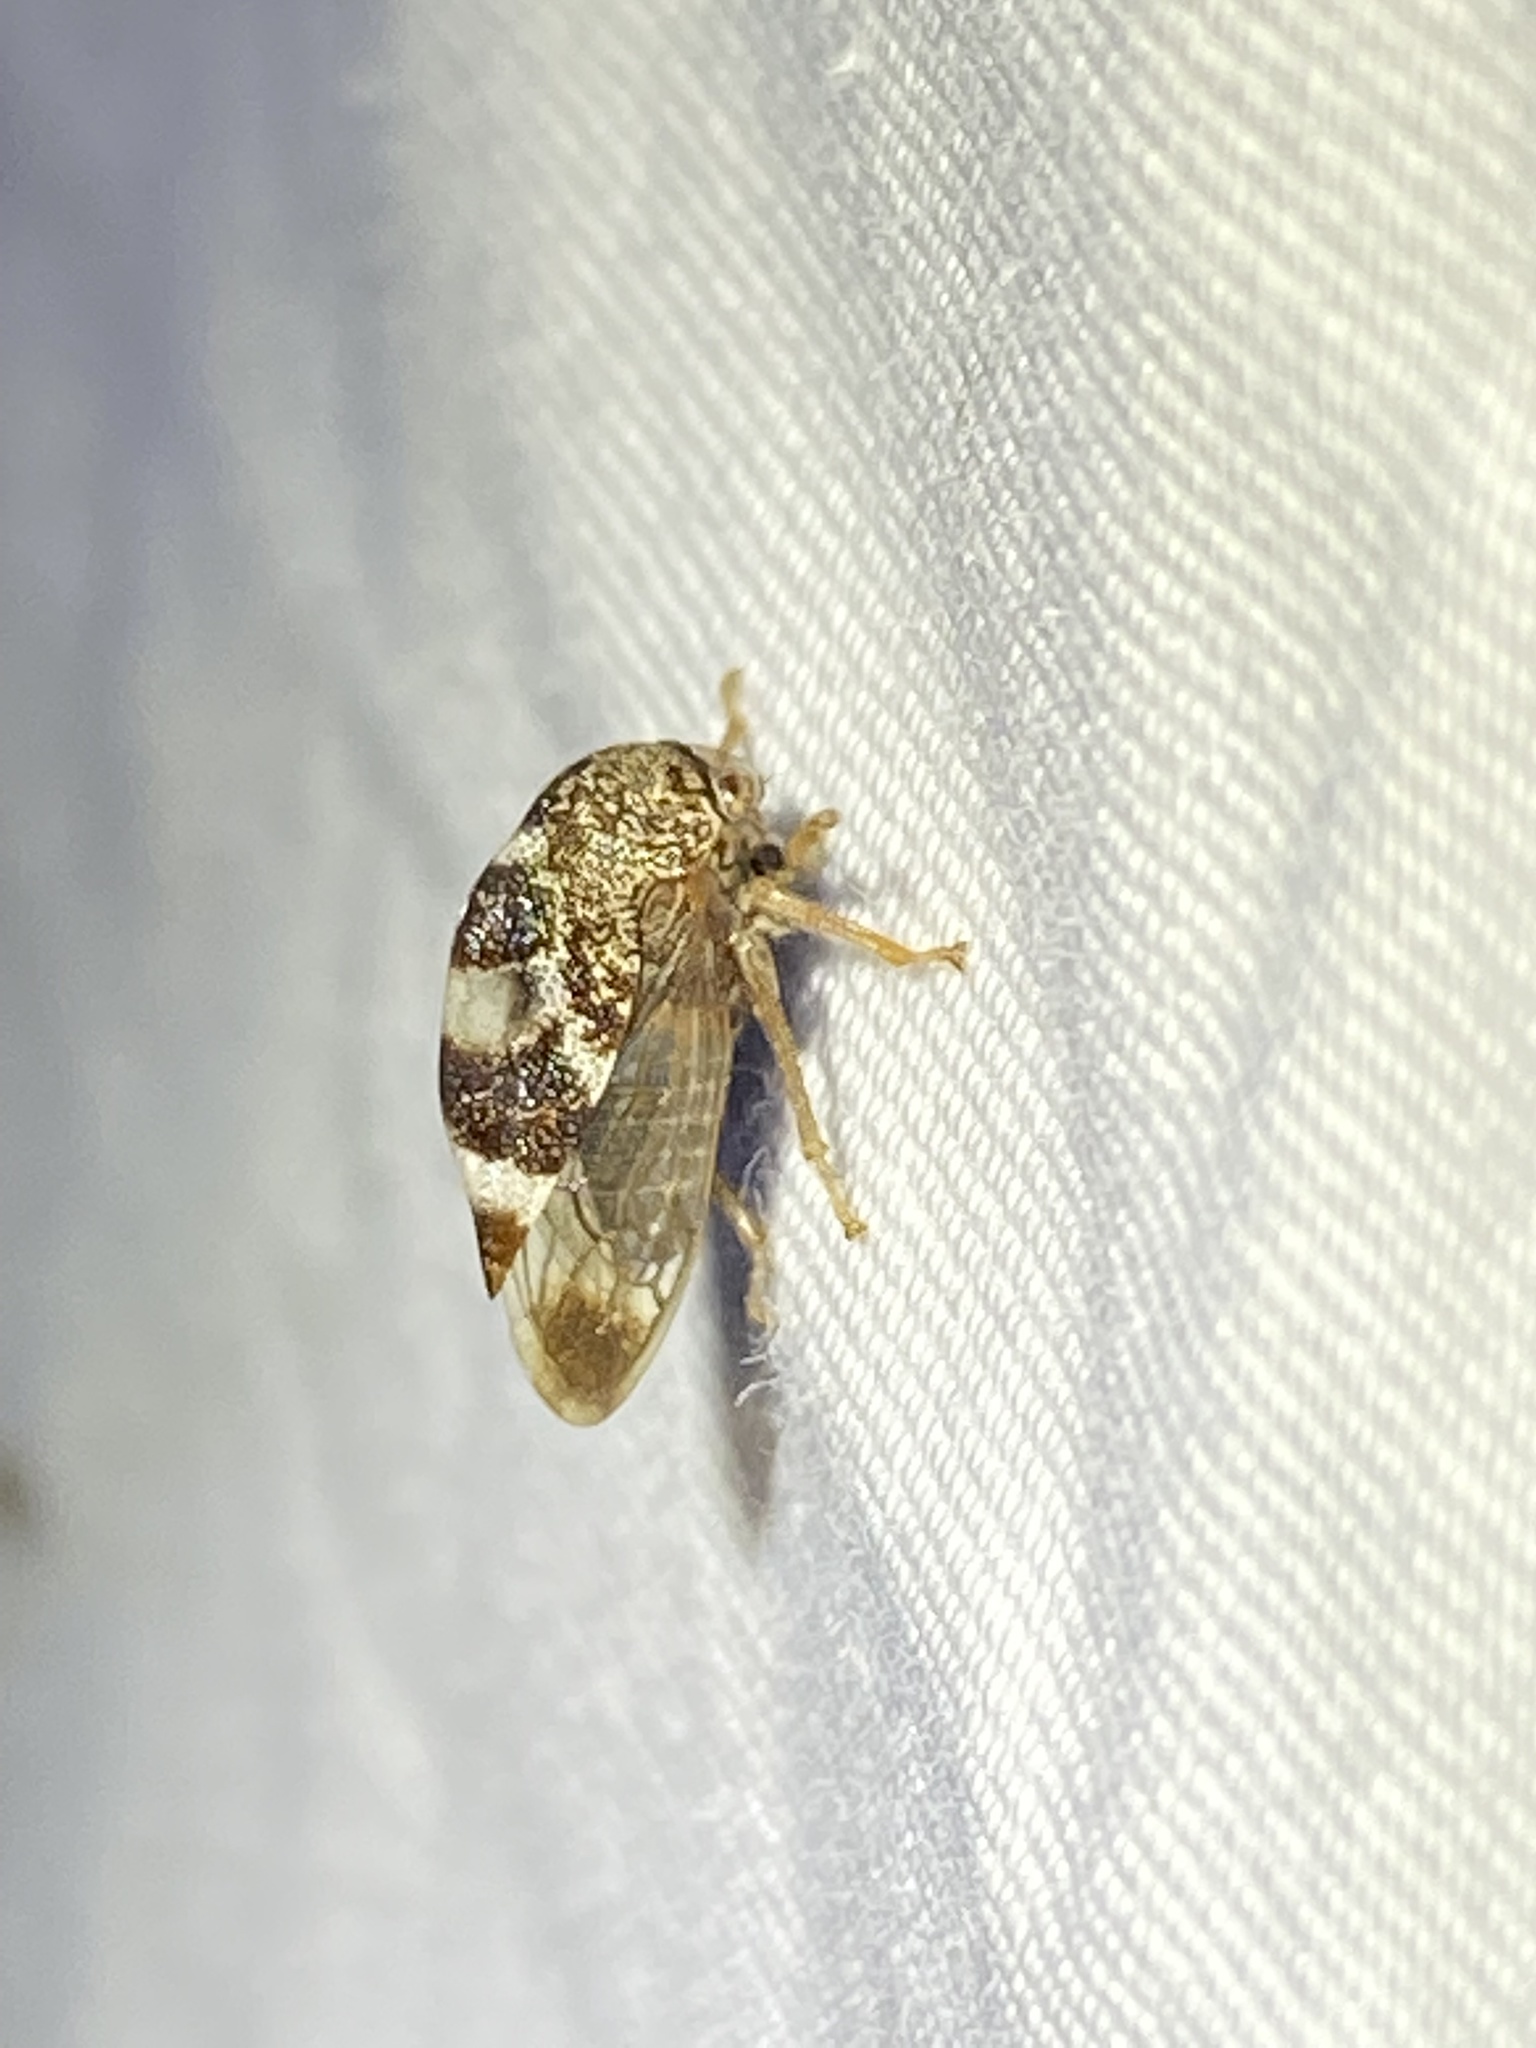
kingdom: Animalia
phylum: Arthropoda
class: Insecta
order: Hemiptera
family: Membracidae
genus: Cyrtolobus
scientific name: Cyrtolobus tuberosa
